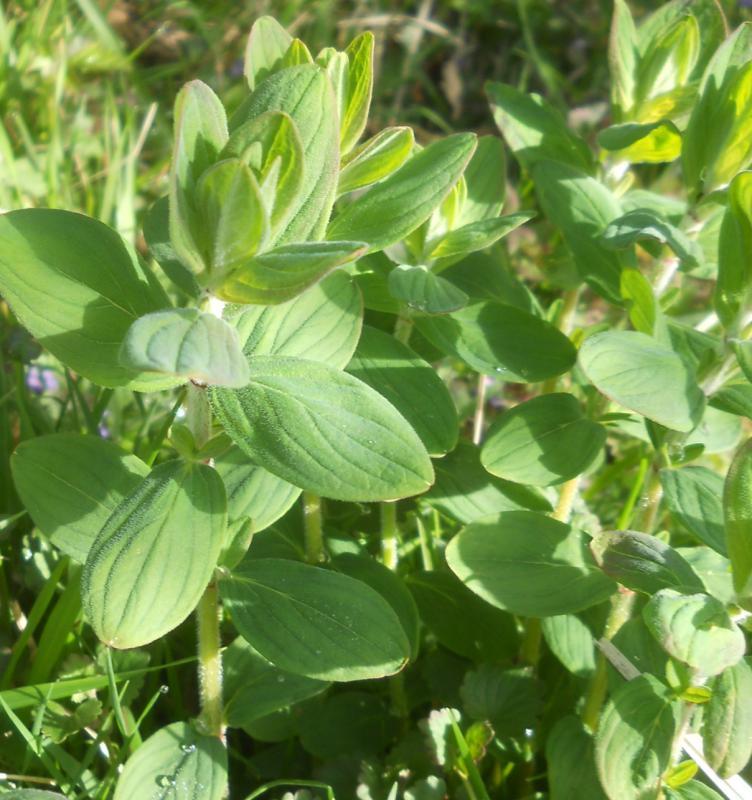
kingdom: Plantae
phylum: Tracheophyta
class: Magnoliopsida
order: Malpighiales
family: Hypericaceae
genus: Hypericum
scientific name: Hypericum hirsutum
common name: Hairy st. john's-wort
